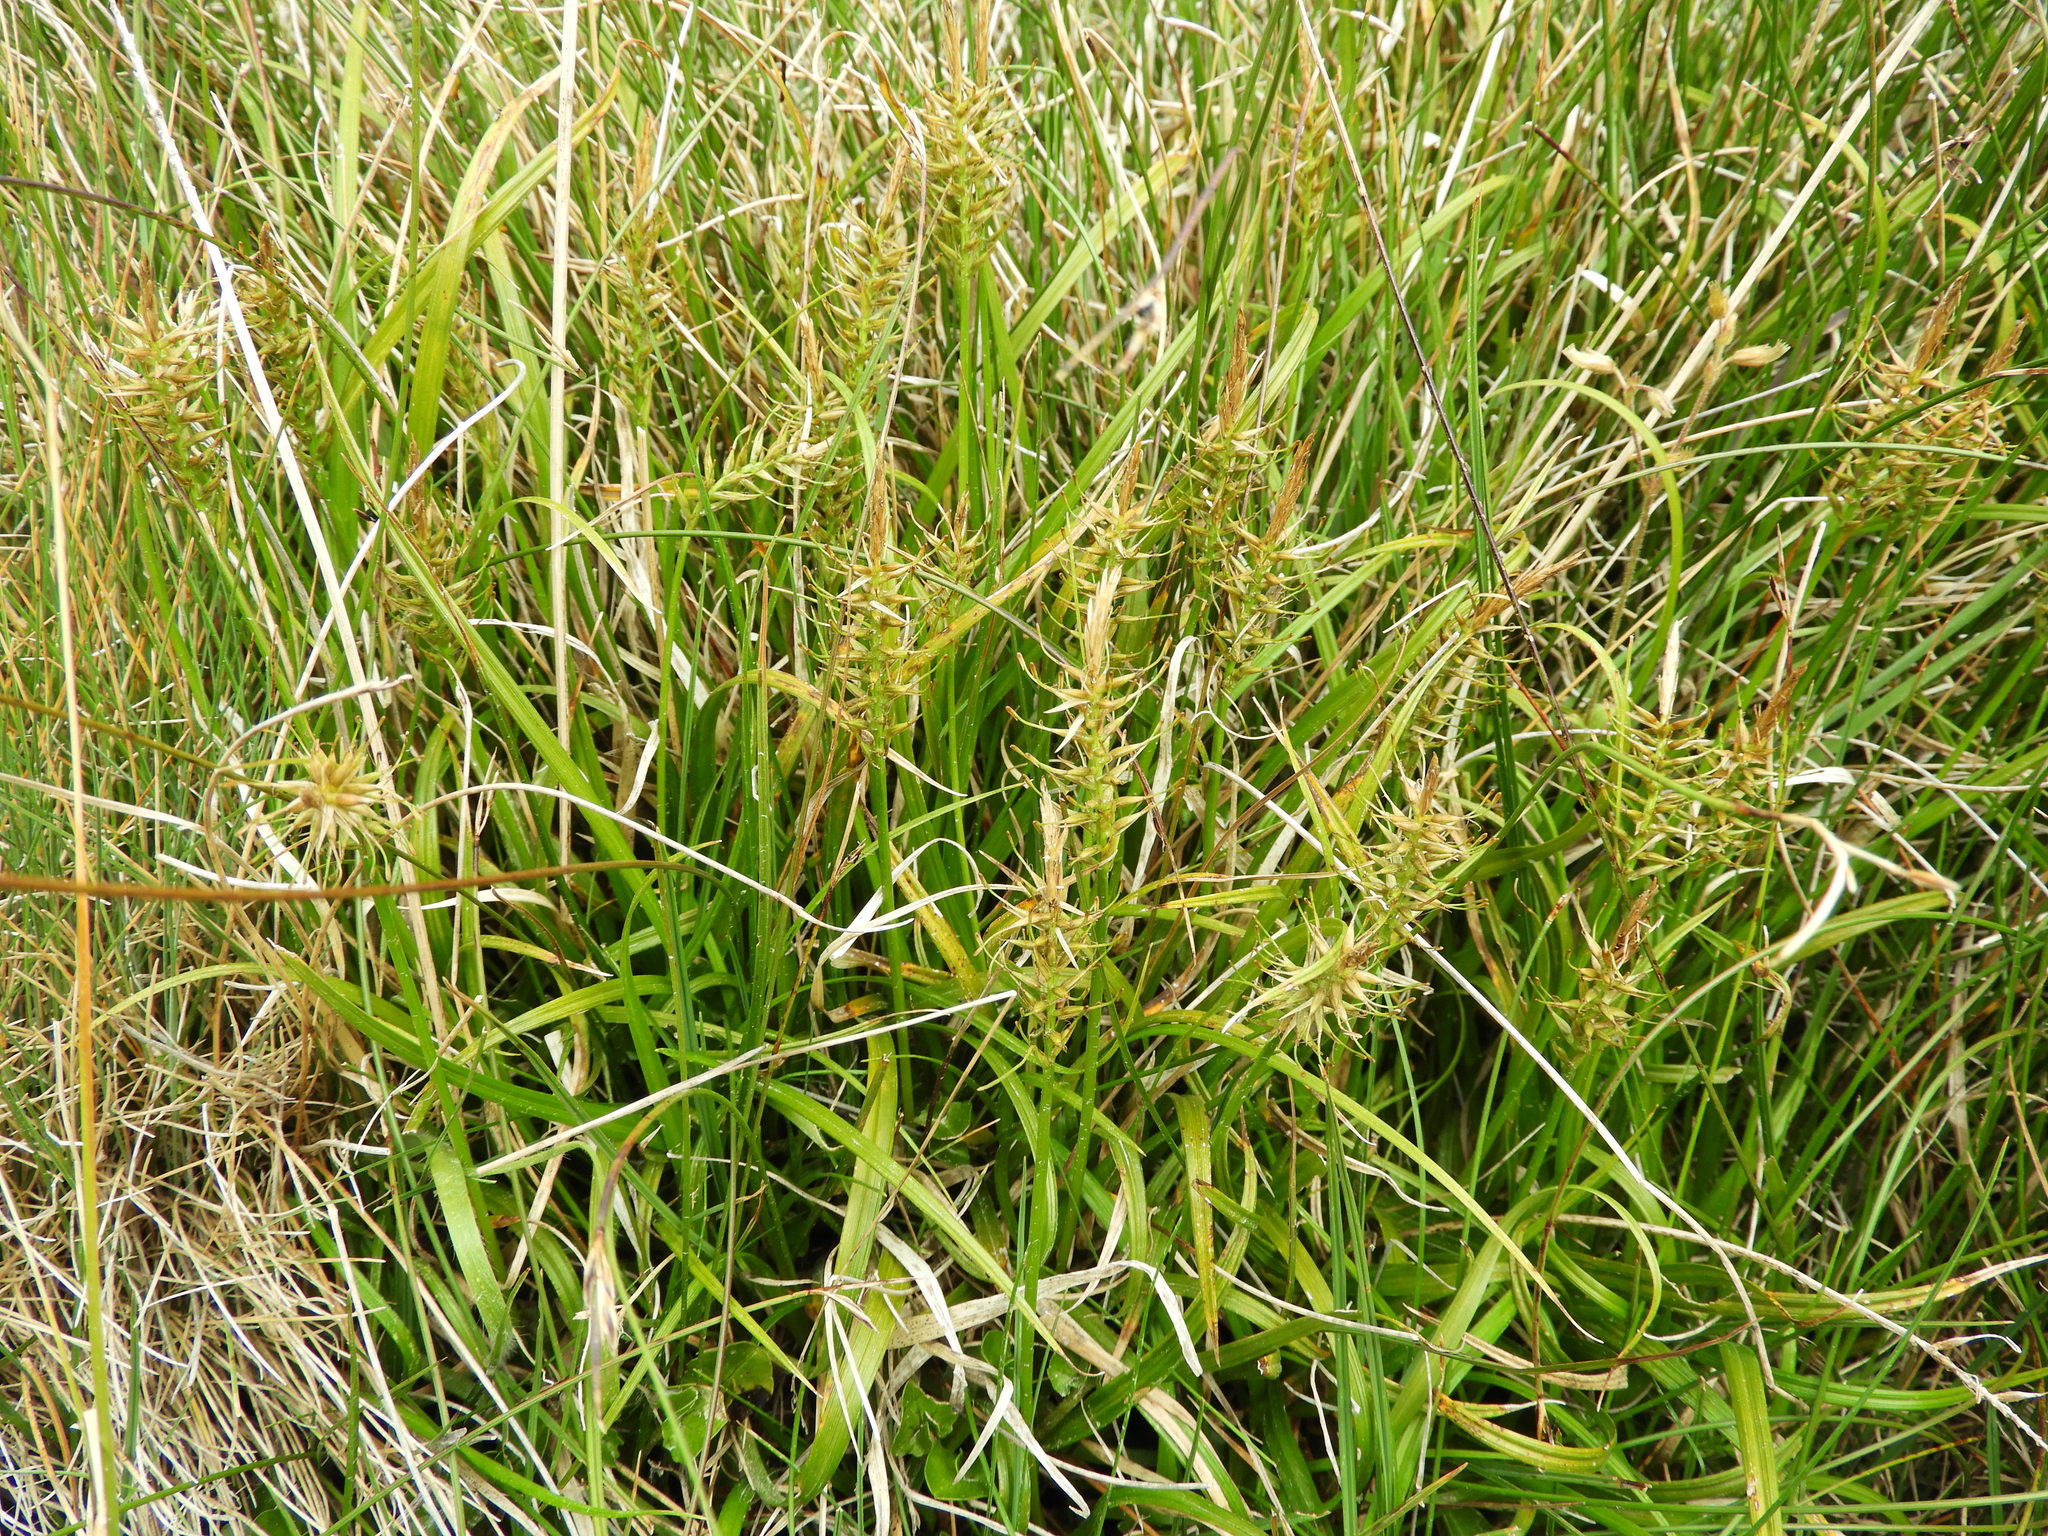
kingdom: Plantae
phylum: Tracheophyta
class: Liliopsida
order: Poales
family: Cyperaceae
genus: Carex
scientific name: Carex edura
